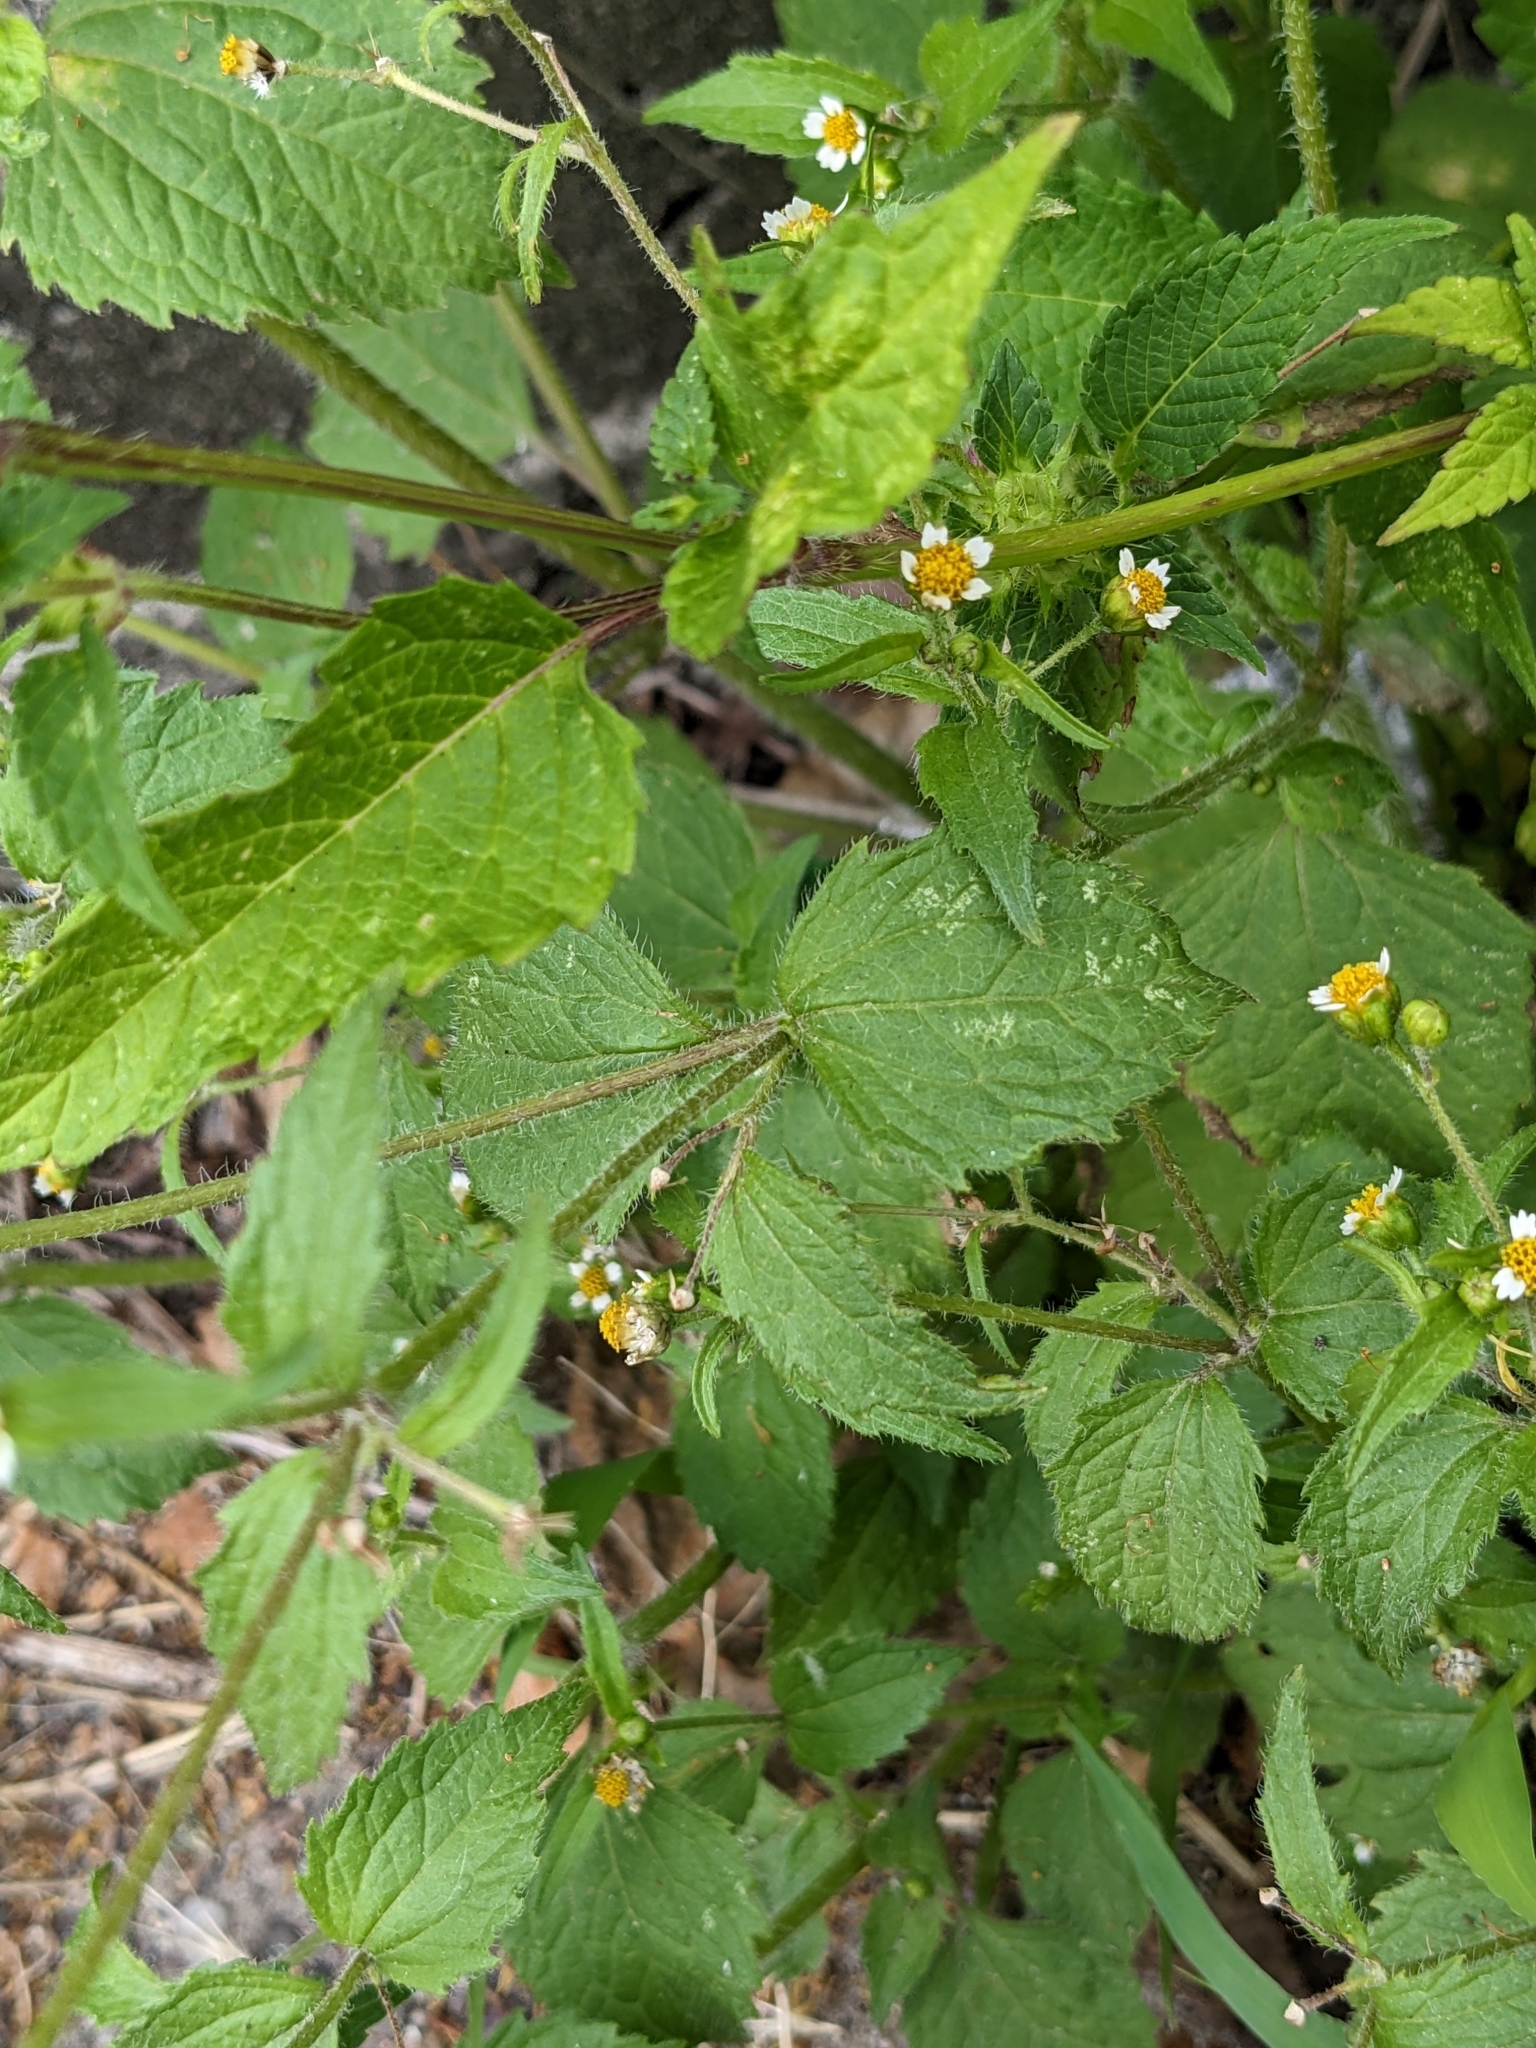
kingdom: Plantae
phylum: Tracheophyta
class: Magnoliopsida
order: Asterales
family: Asteraceae
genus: Galinsoga
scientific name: Galinsoga quadriradiata
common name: Shaggy soldier
